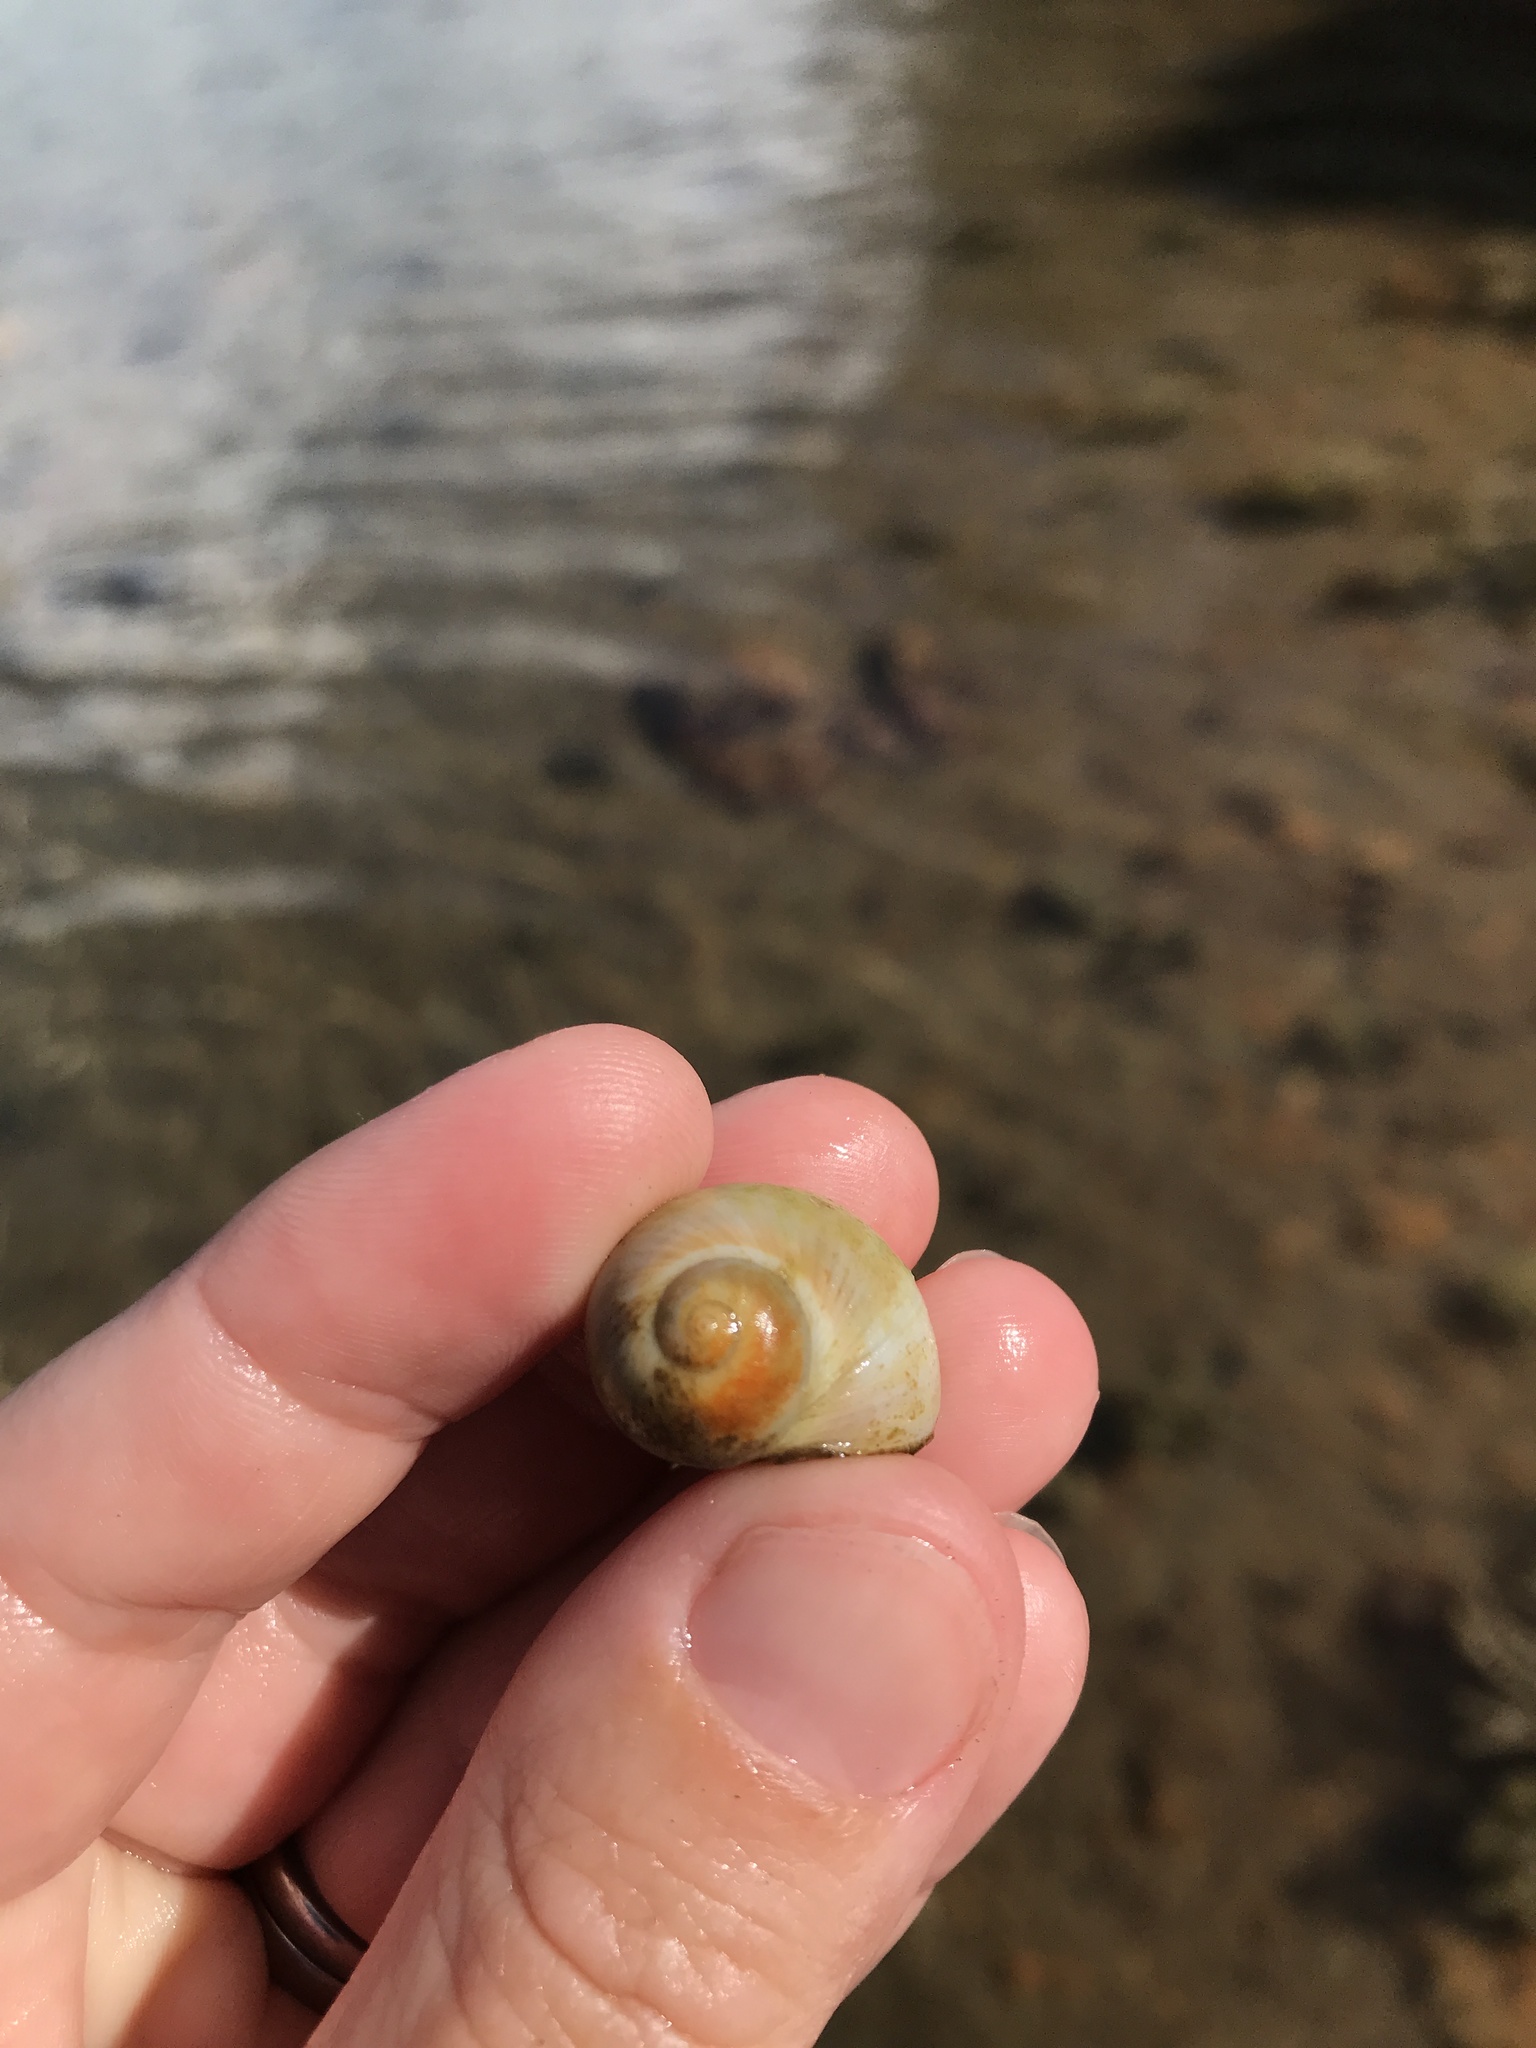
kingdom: Animalia
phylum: Mollusca
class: Gastropoda
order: Littorinimorpha
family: Naticidae
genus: Notocochlis
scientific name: Notocochlis gualteriana
